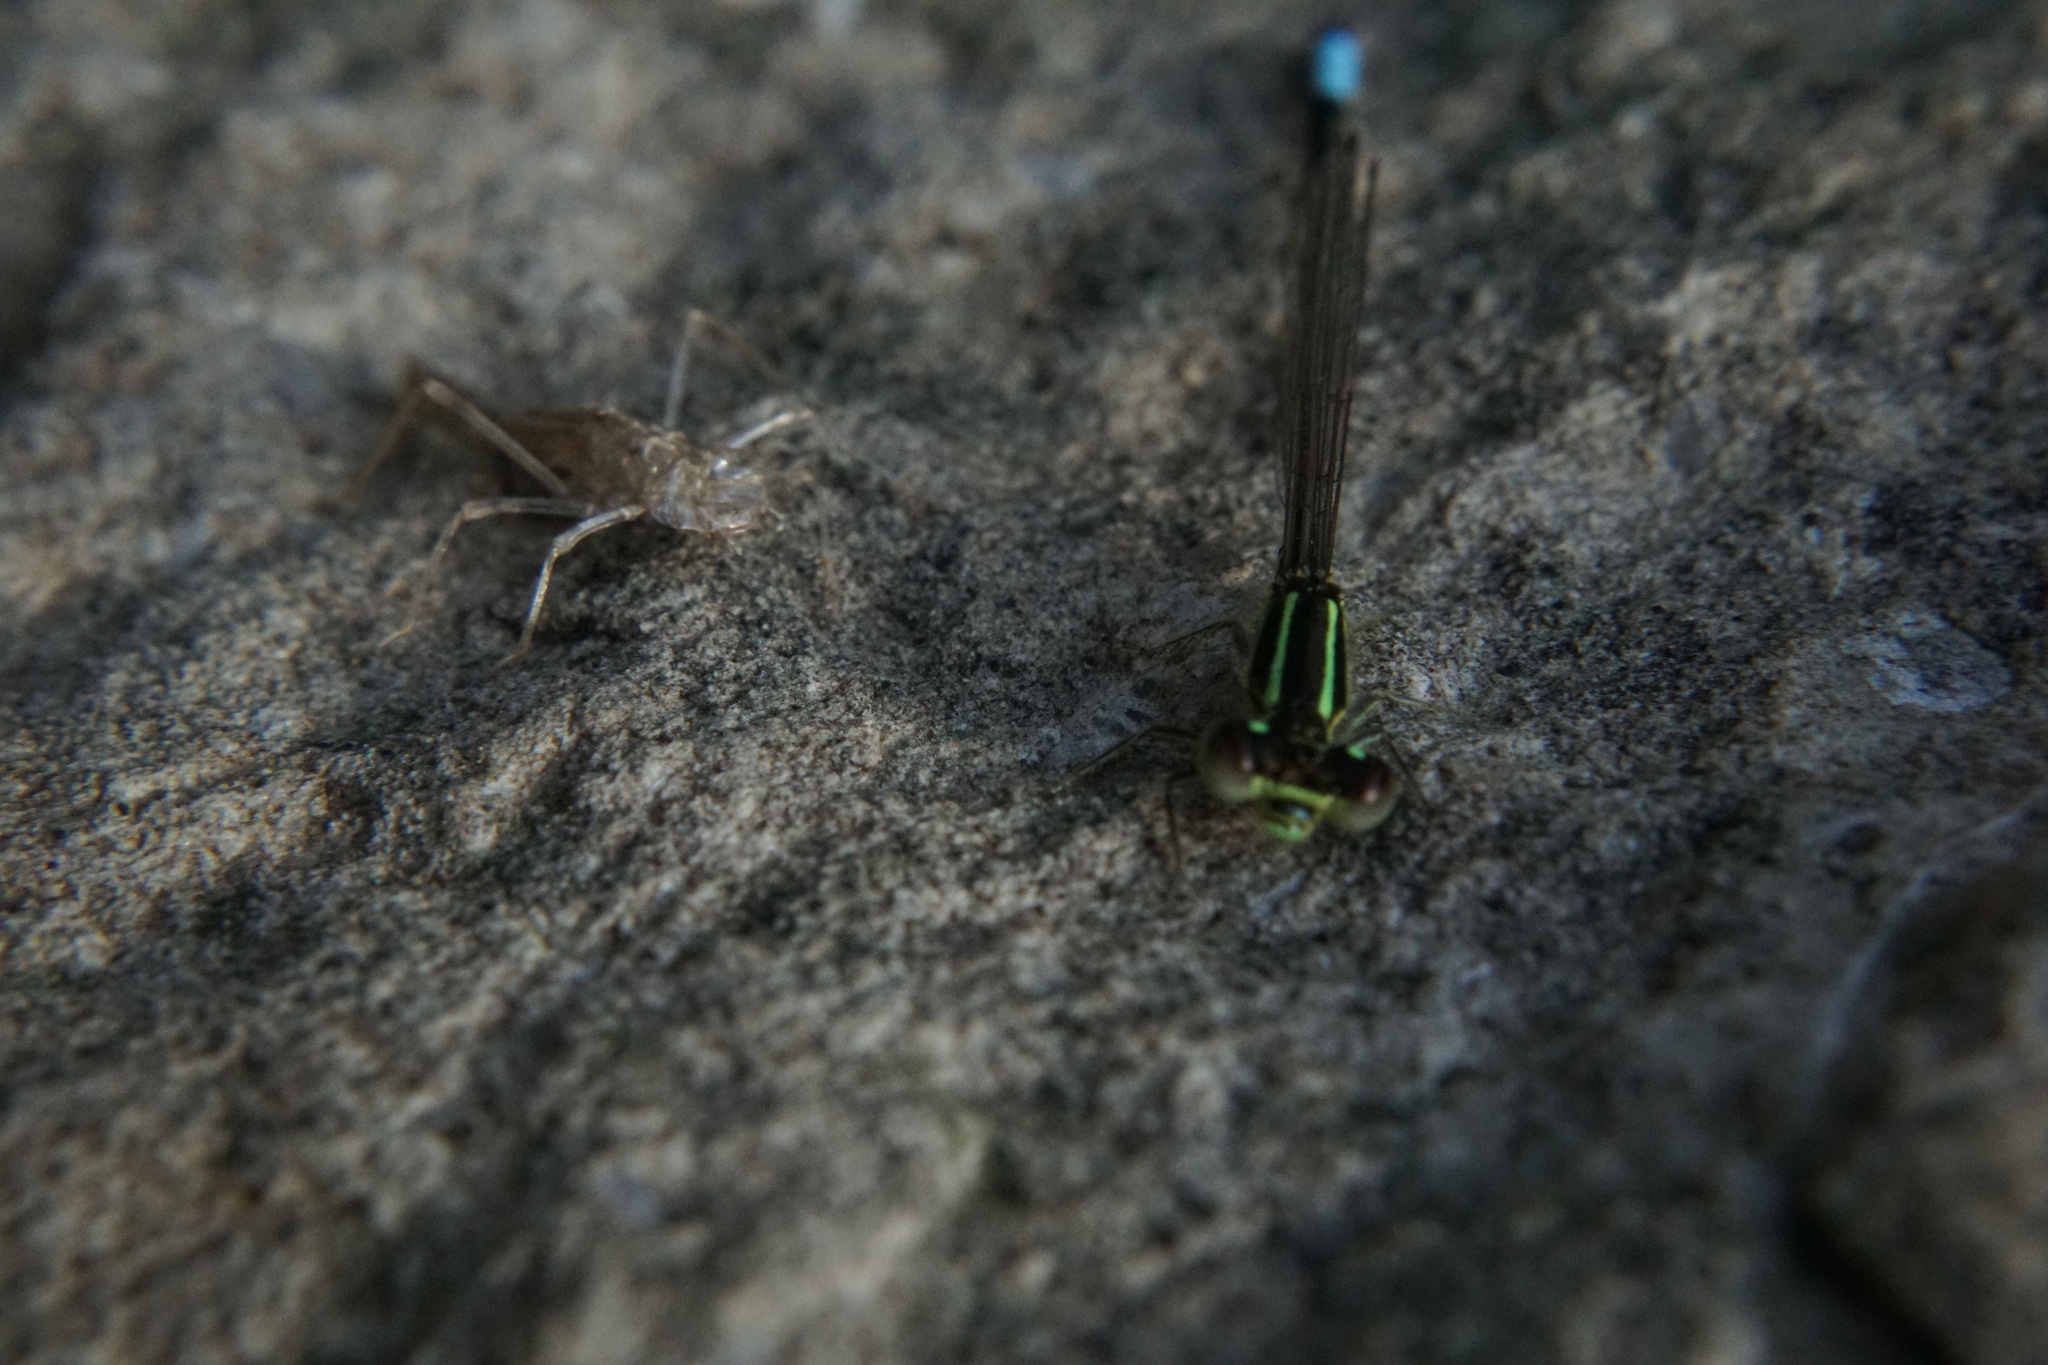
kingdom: Animalia
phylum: Arthropoda
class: Insecta
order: Odonata
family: Coenagrionidae
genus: Ischnura
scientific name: Ischnura verticalis
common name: Eastern forktail
